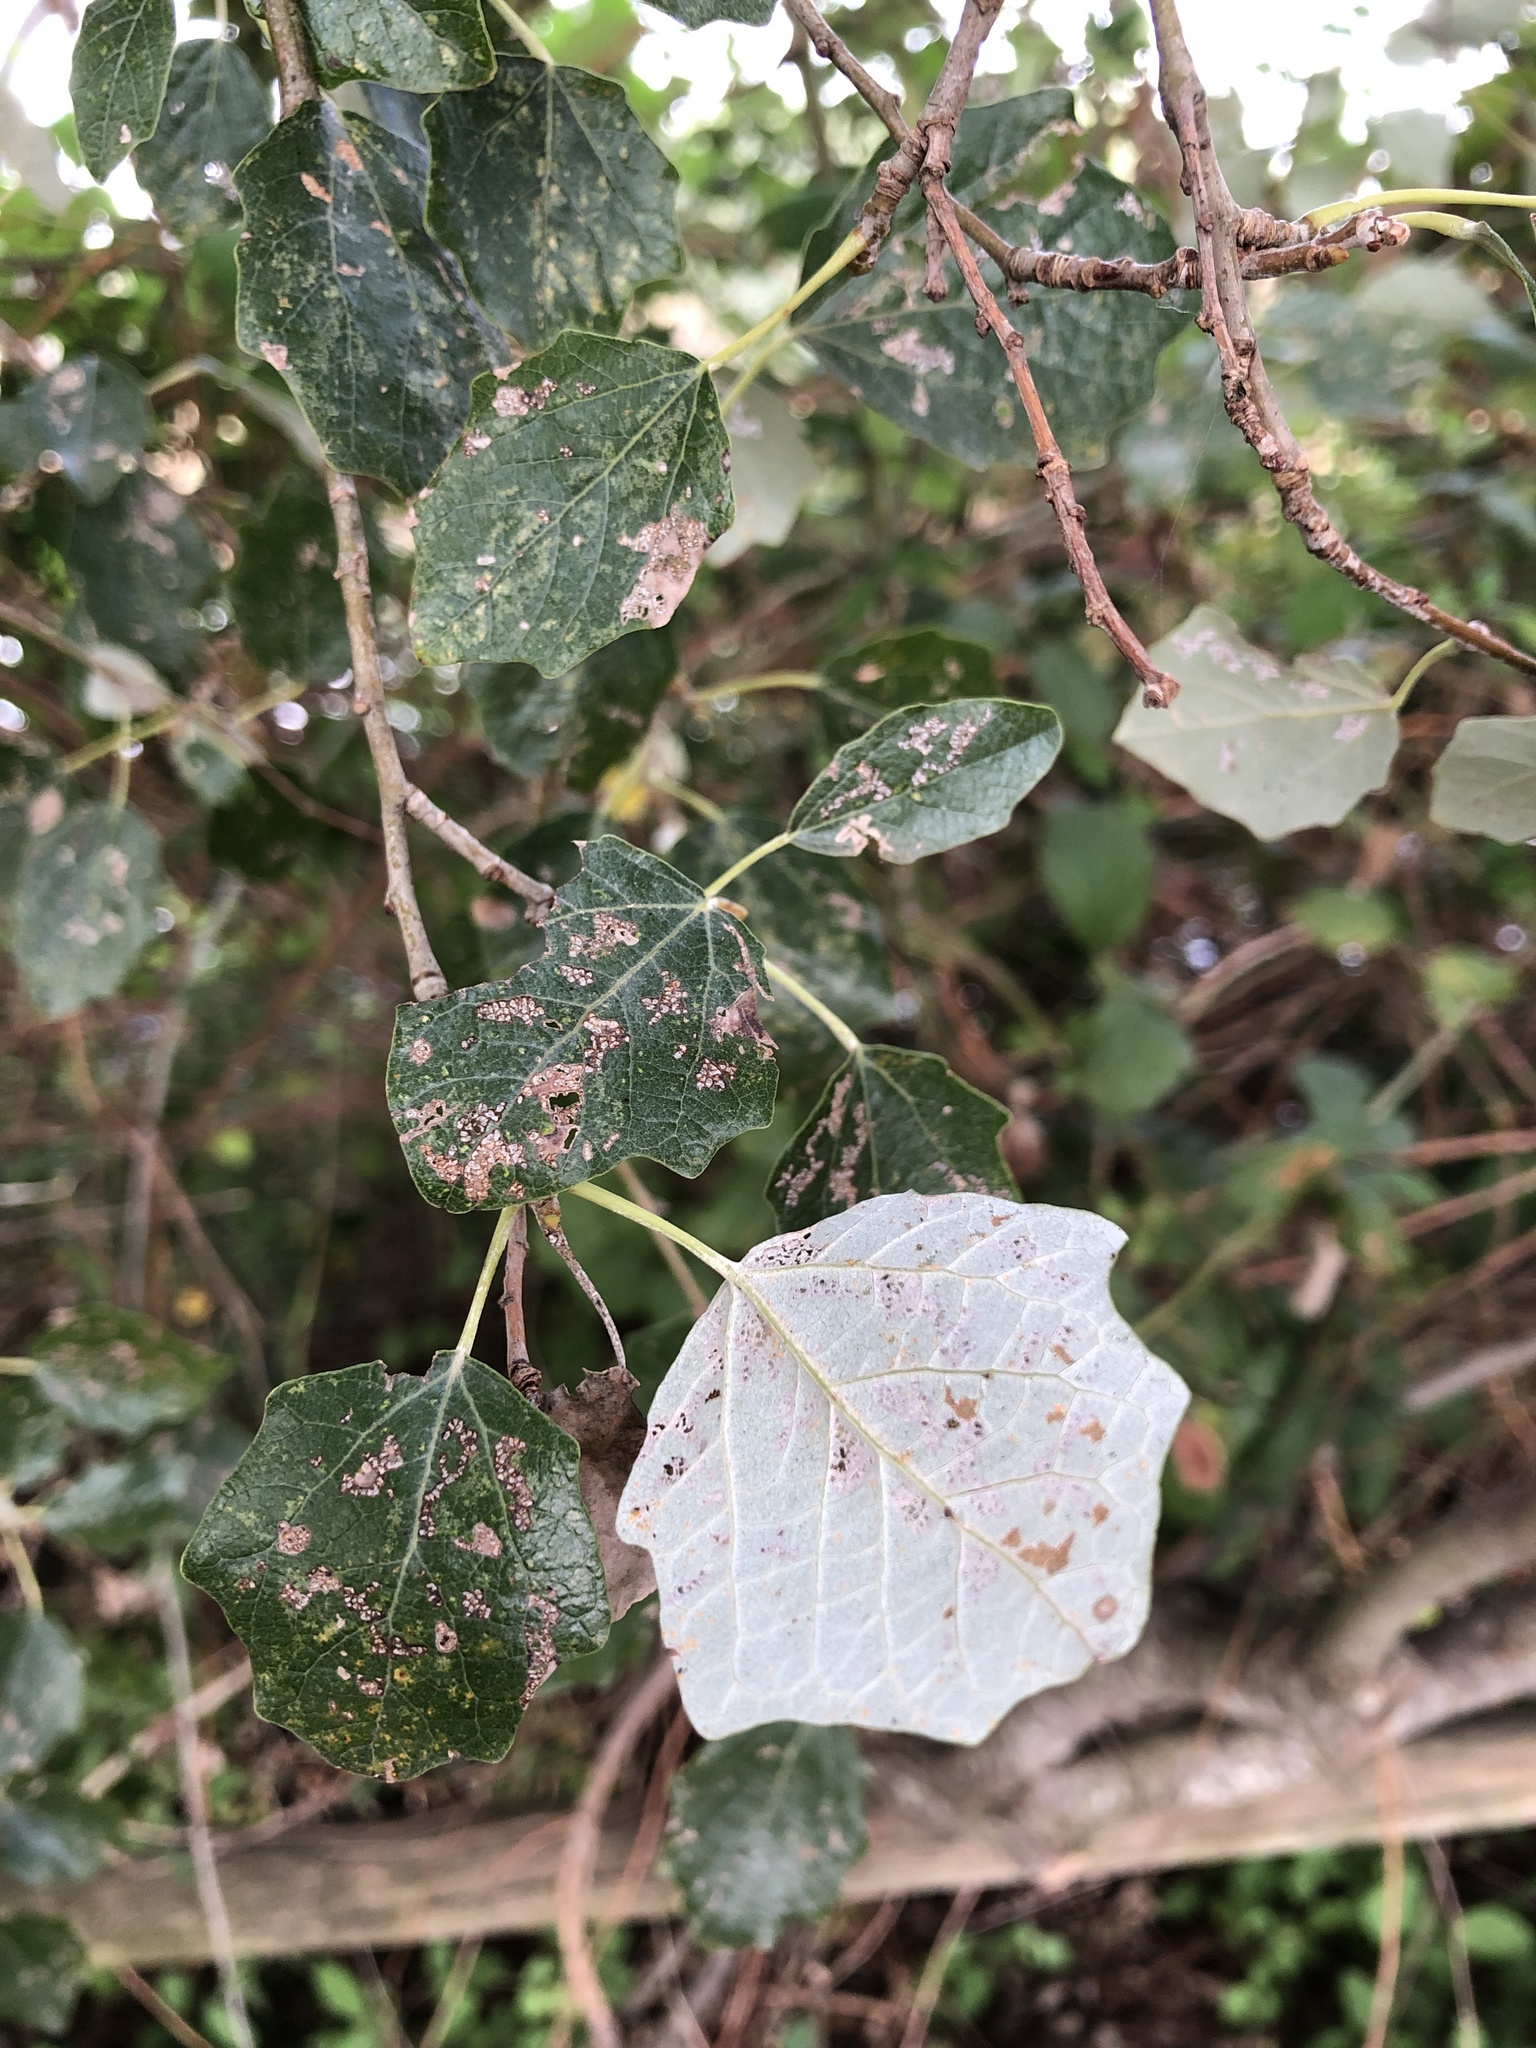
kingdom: Plantae
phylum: Tracheophyta
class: Magnoliopsida
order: Malpighiales
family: Salicaceae
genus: Populus
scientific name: Populus alba
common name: White poplar
